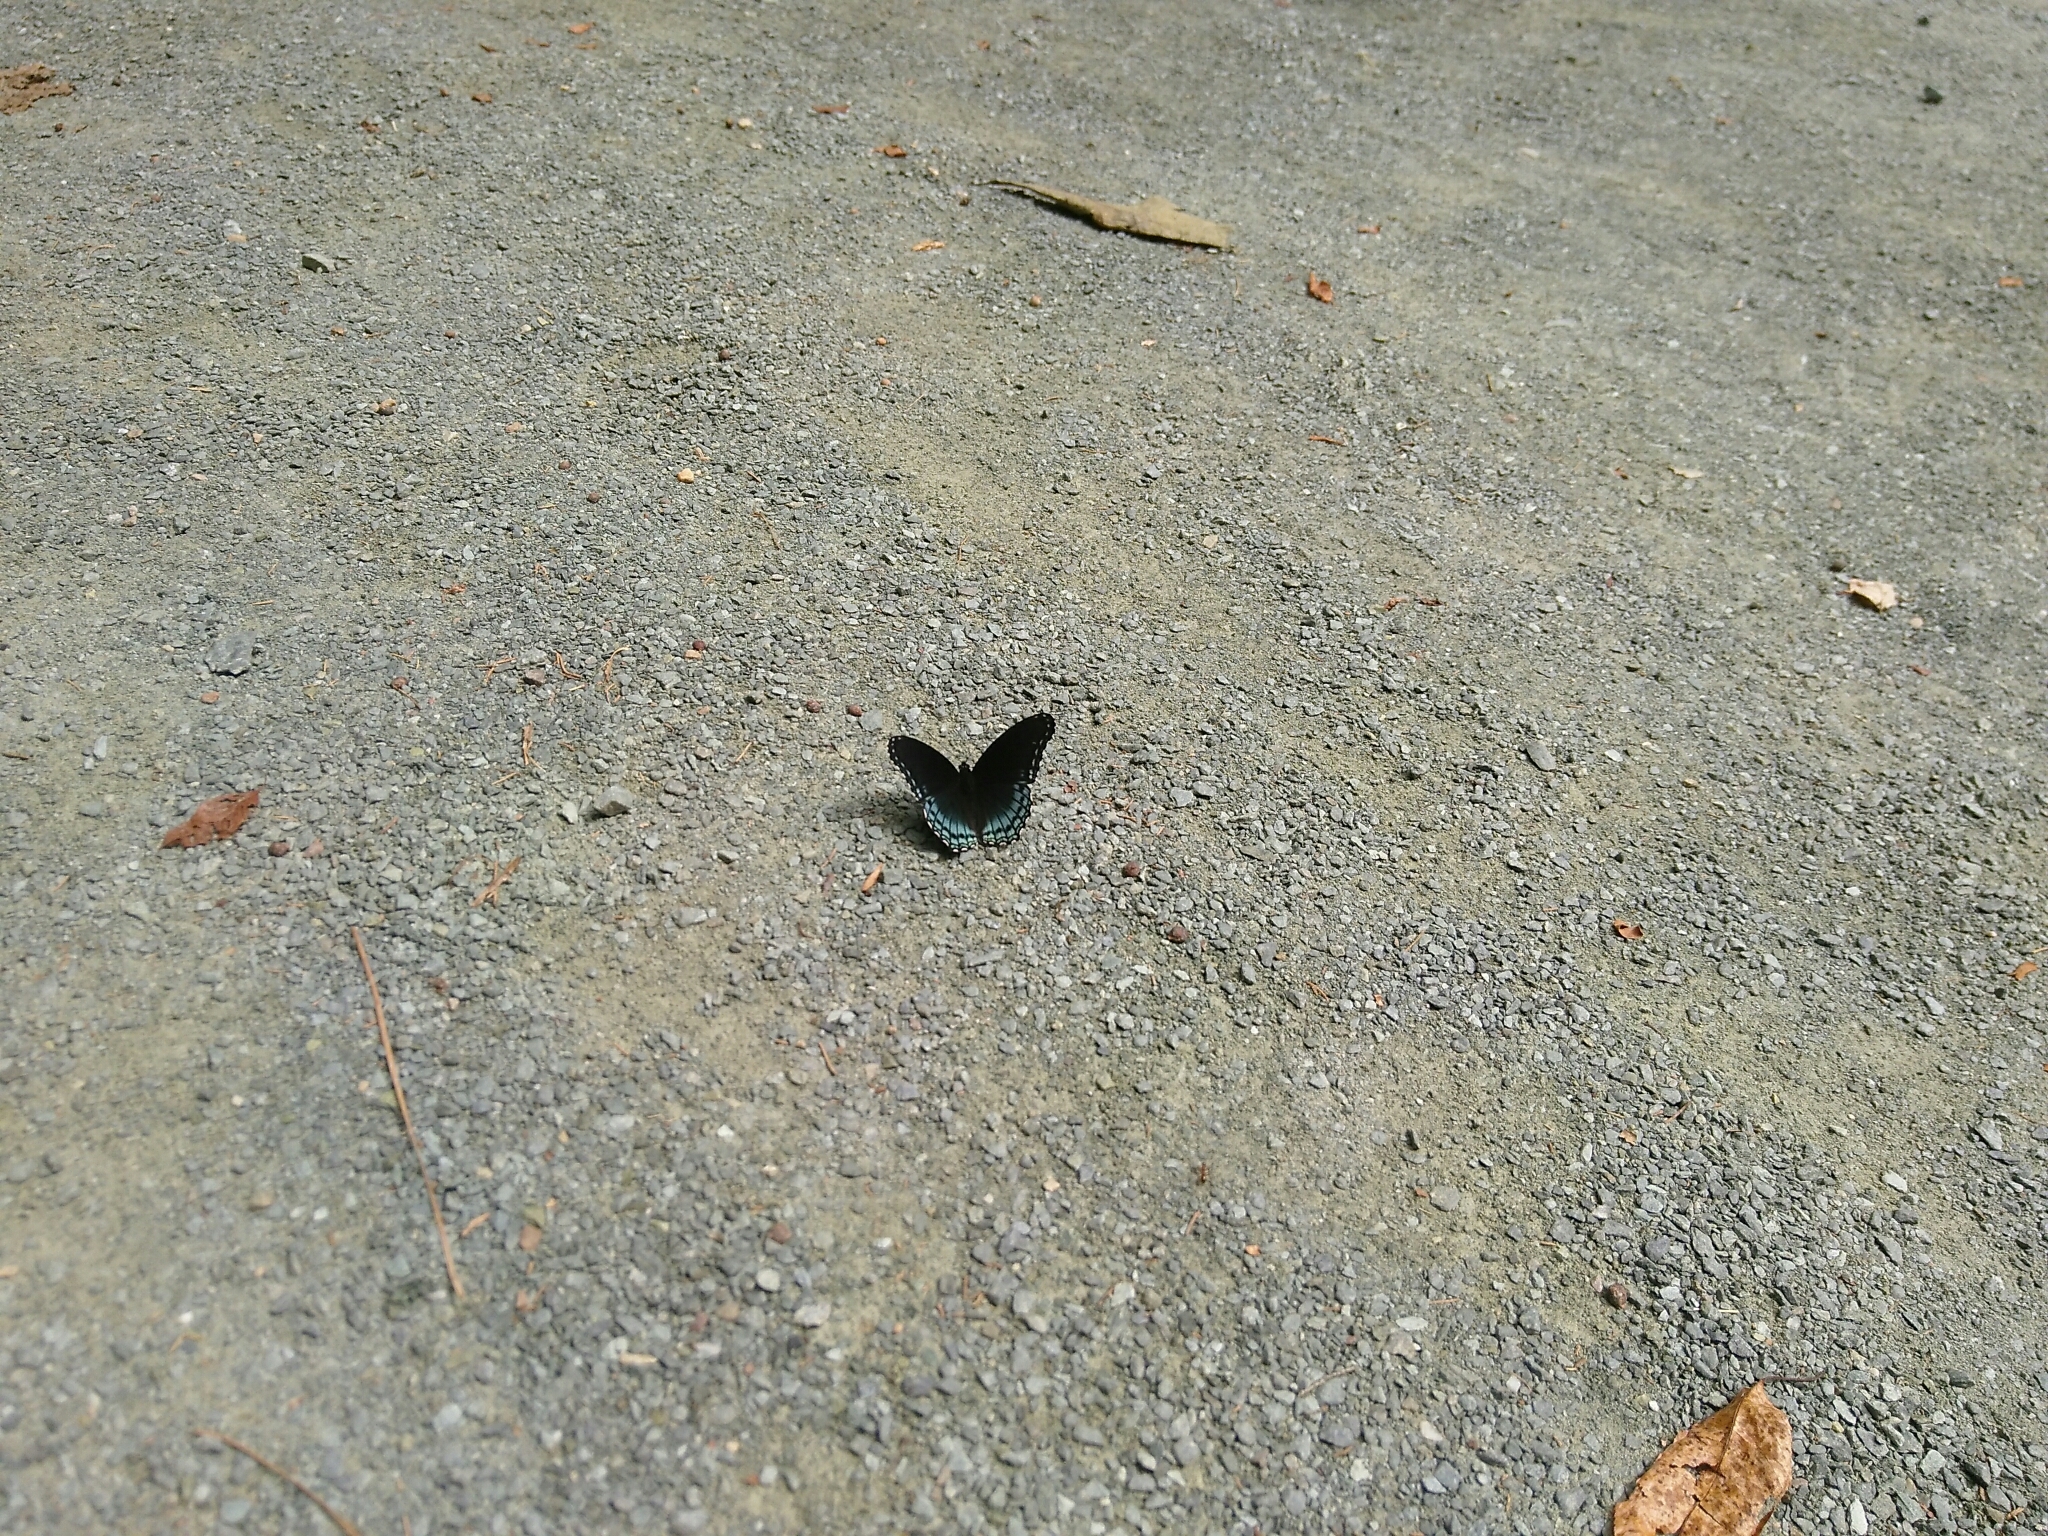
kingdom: Animalia
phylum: Arthropoda
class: Insecta
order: Lepidoptera
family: Nymphalidae
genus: Limenitis
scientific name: Limenitis arthemis
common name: Red-spotted admiral
